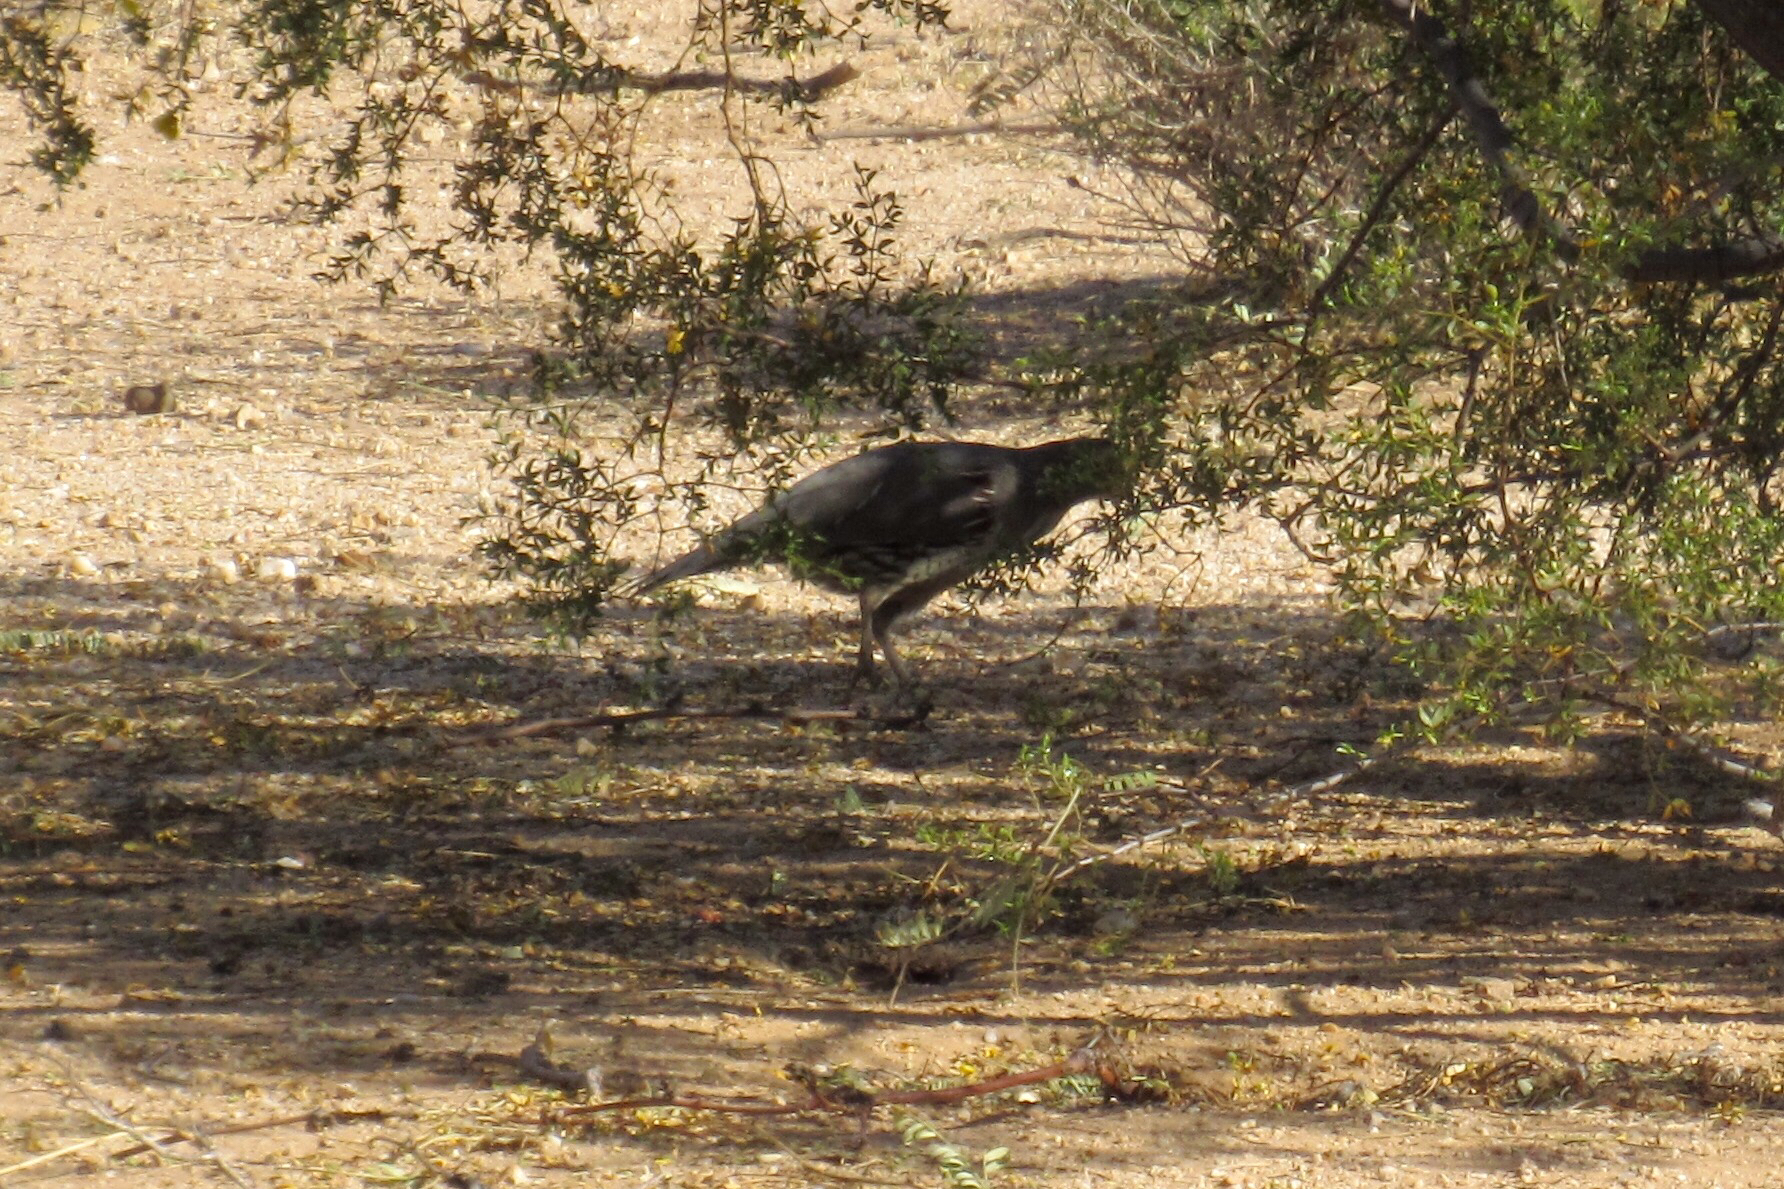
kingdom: Animalia
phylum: Chordata
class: Aves
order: Galliformes
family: Odontophoridae
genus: Callipepla
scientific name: Callipepla gambelii
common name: Gambel's quail
